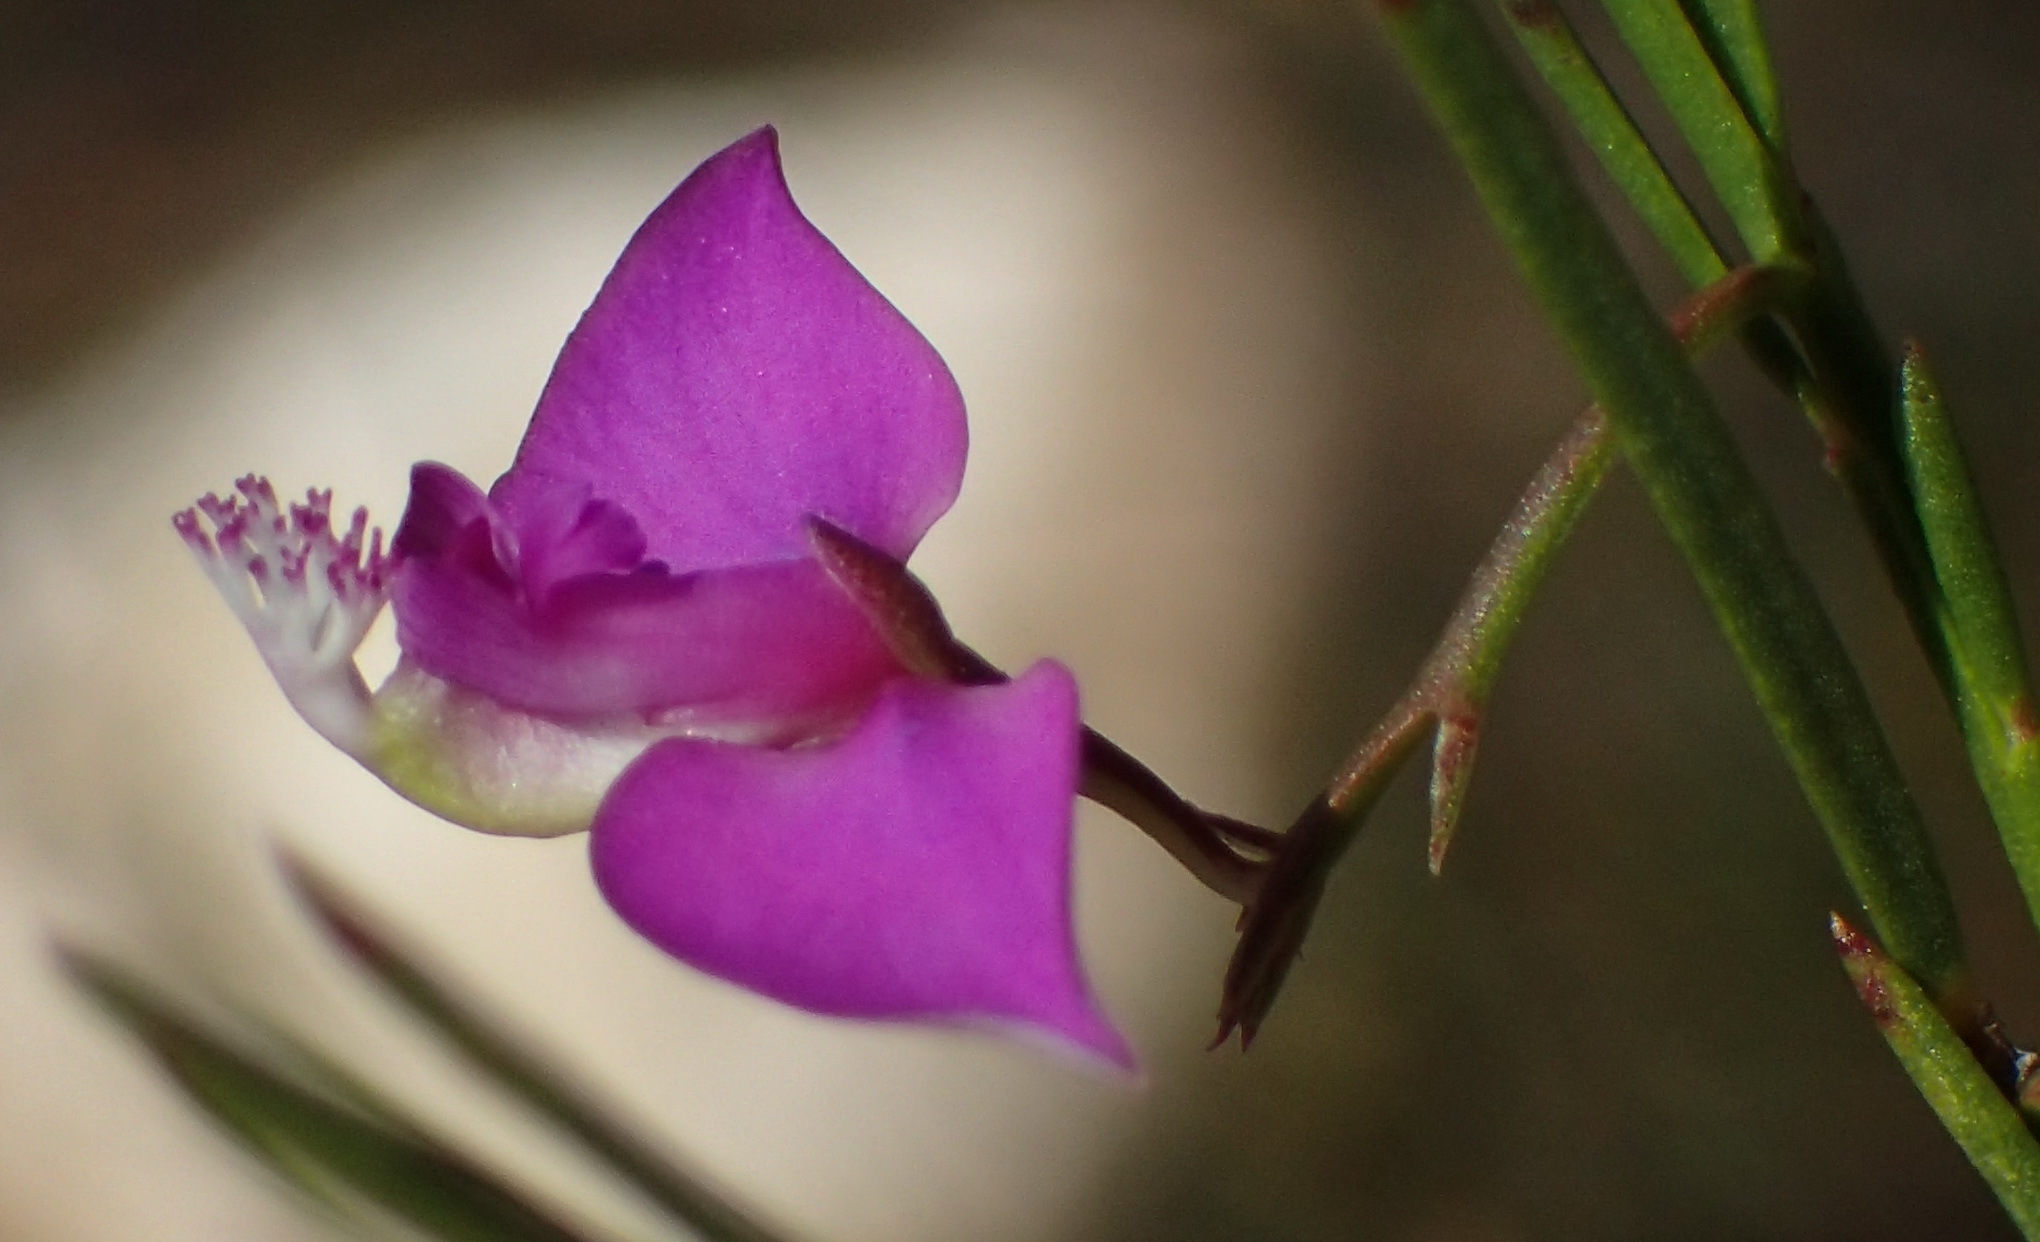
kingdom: Plantae
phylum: Tracheophyta
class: Magnoliopsida
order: Fabales
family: Polygalaceae
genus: Polygala
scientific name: Polygala refracta
